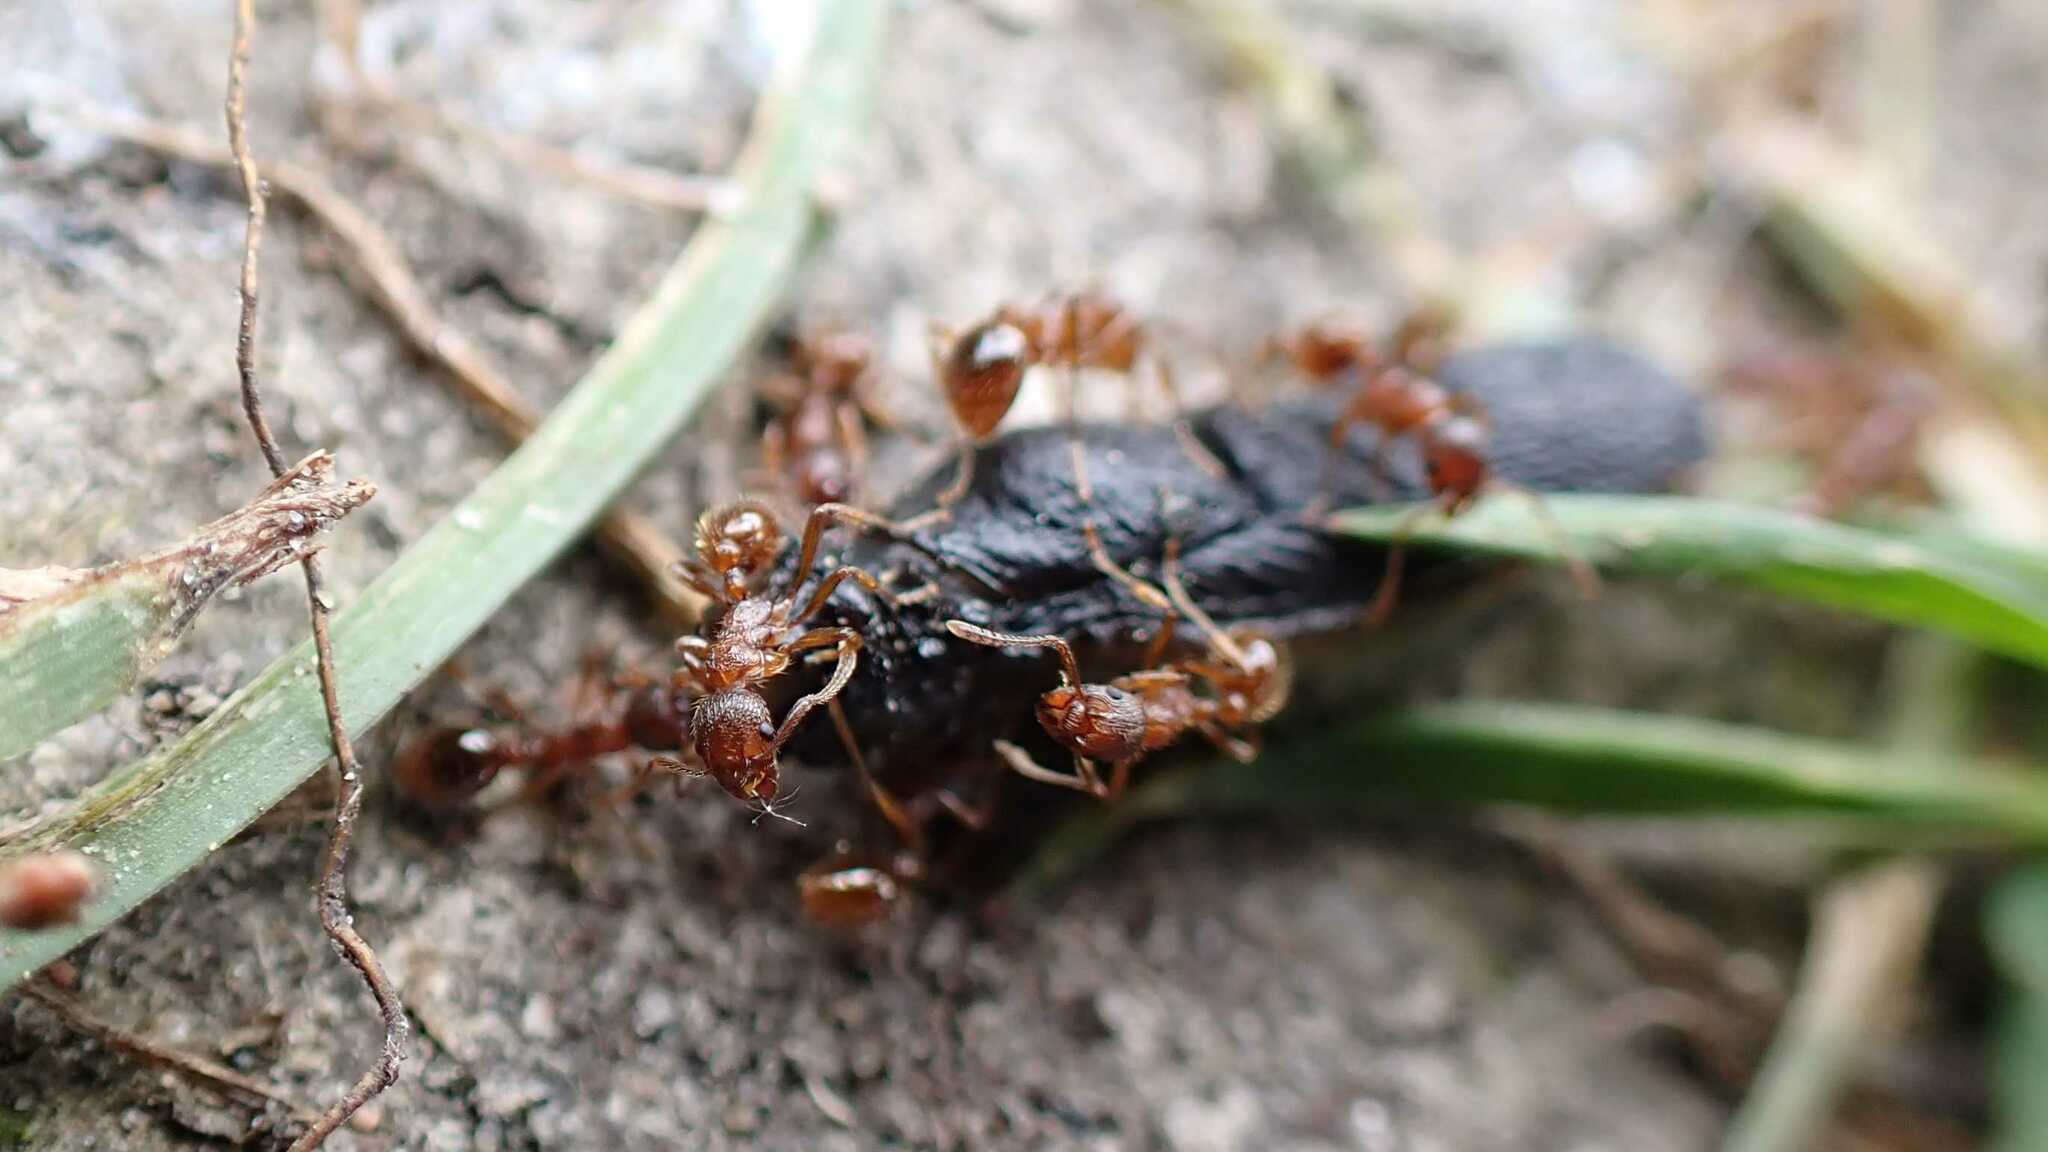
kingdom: Animalia
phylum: Arthropoda
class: Insecta
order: Hymenoptera
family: Formicidae
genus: Myrmica
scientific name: Myrmica rubra
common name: European fire ant
